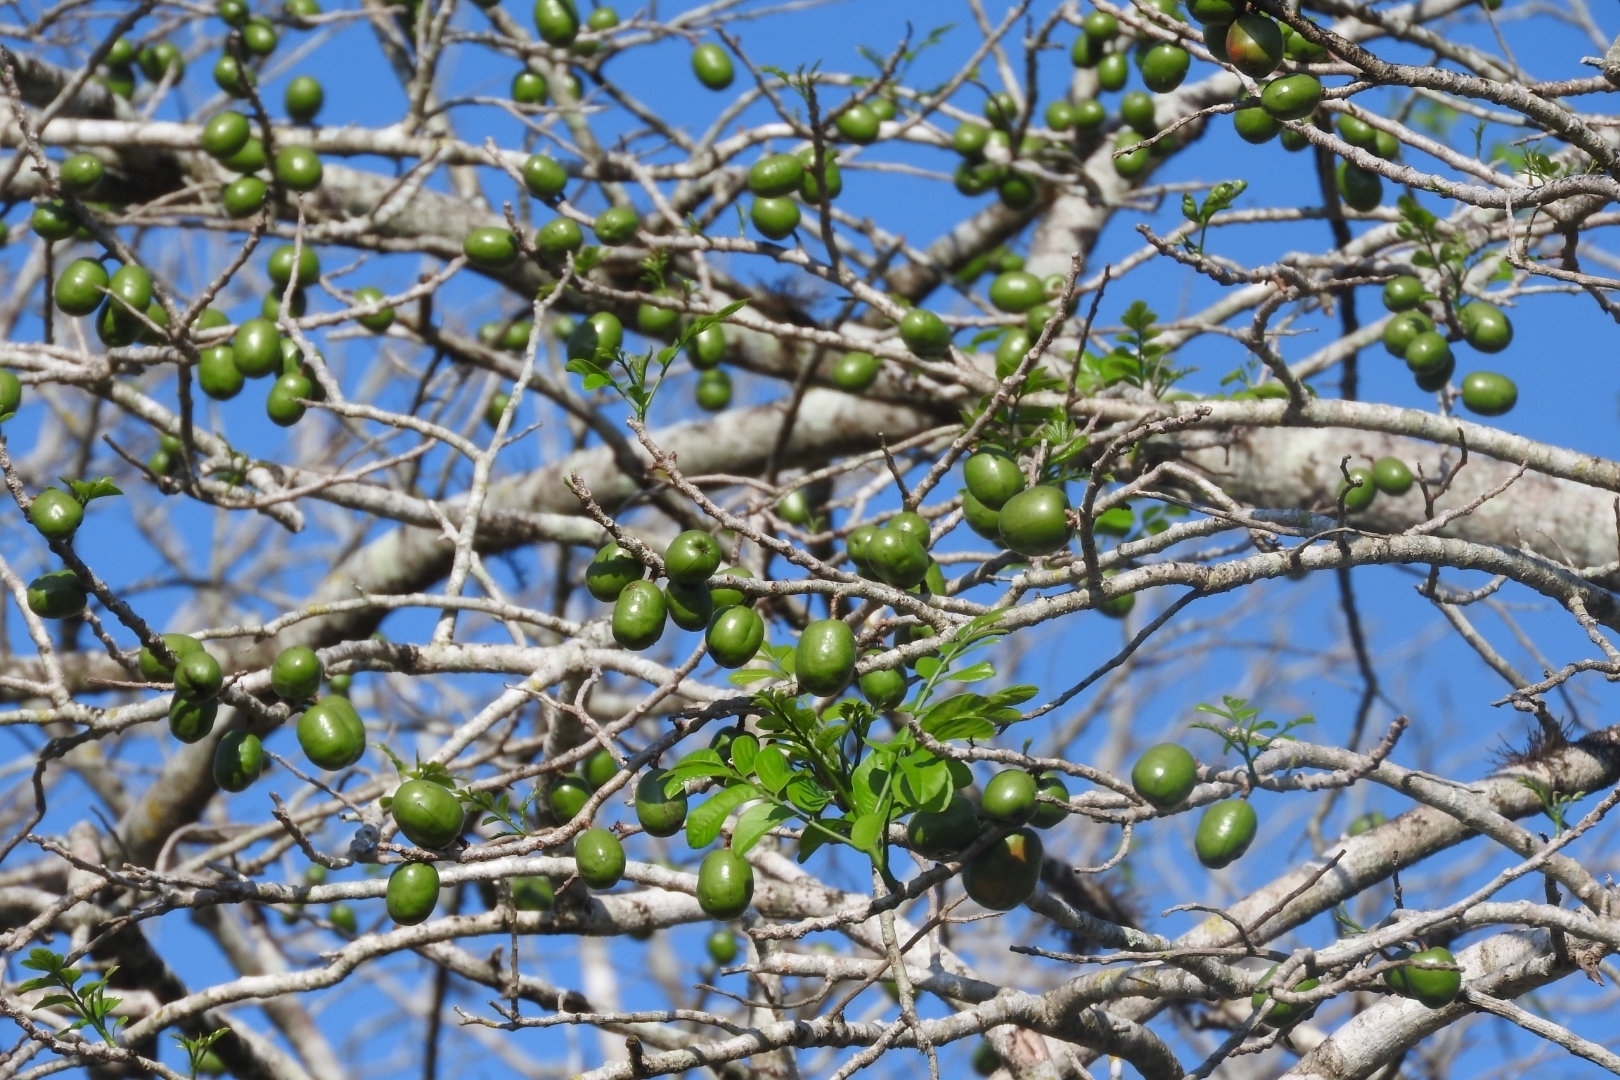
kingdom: Plantae
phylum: Tracheophyta
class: Magnoliopsida
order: Sapindales
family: Anacardiaceae
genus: Spondias
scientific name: Spondias purpurea
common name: Purple mombin
